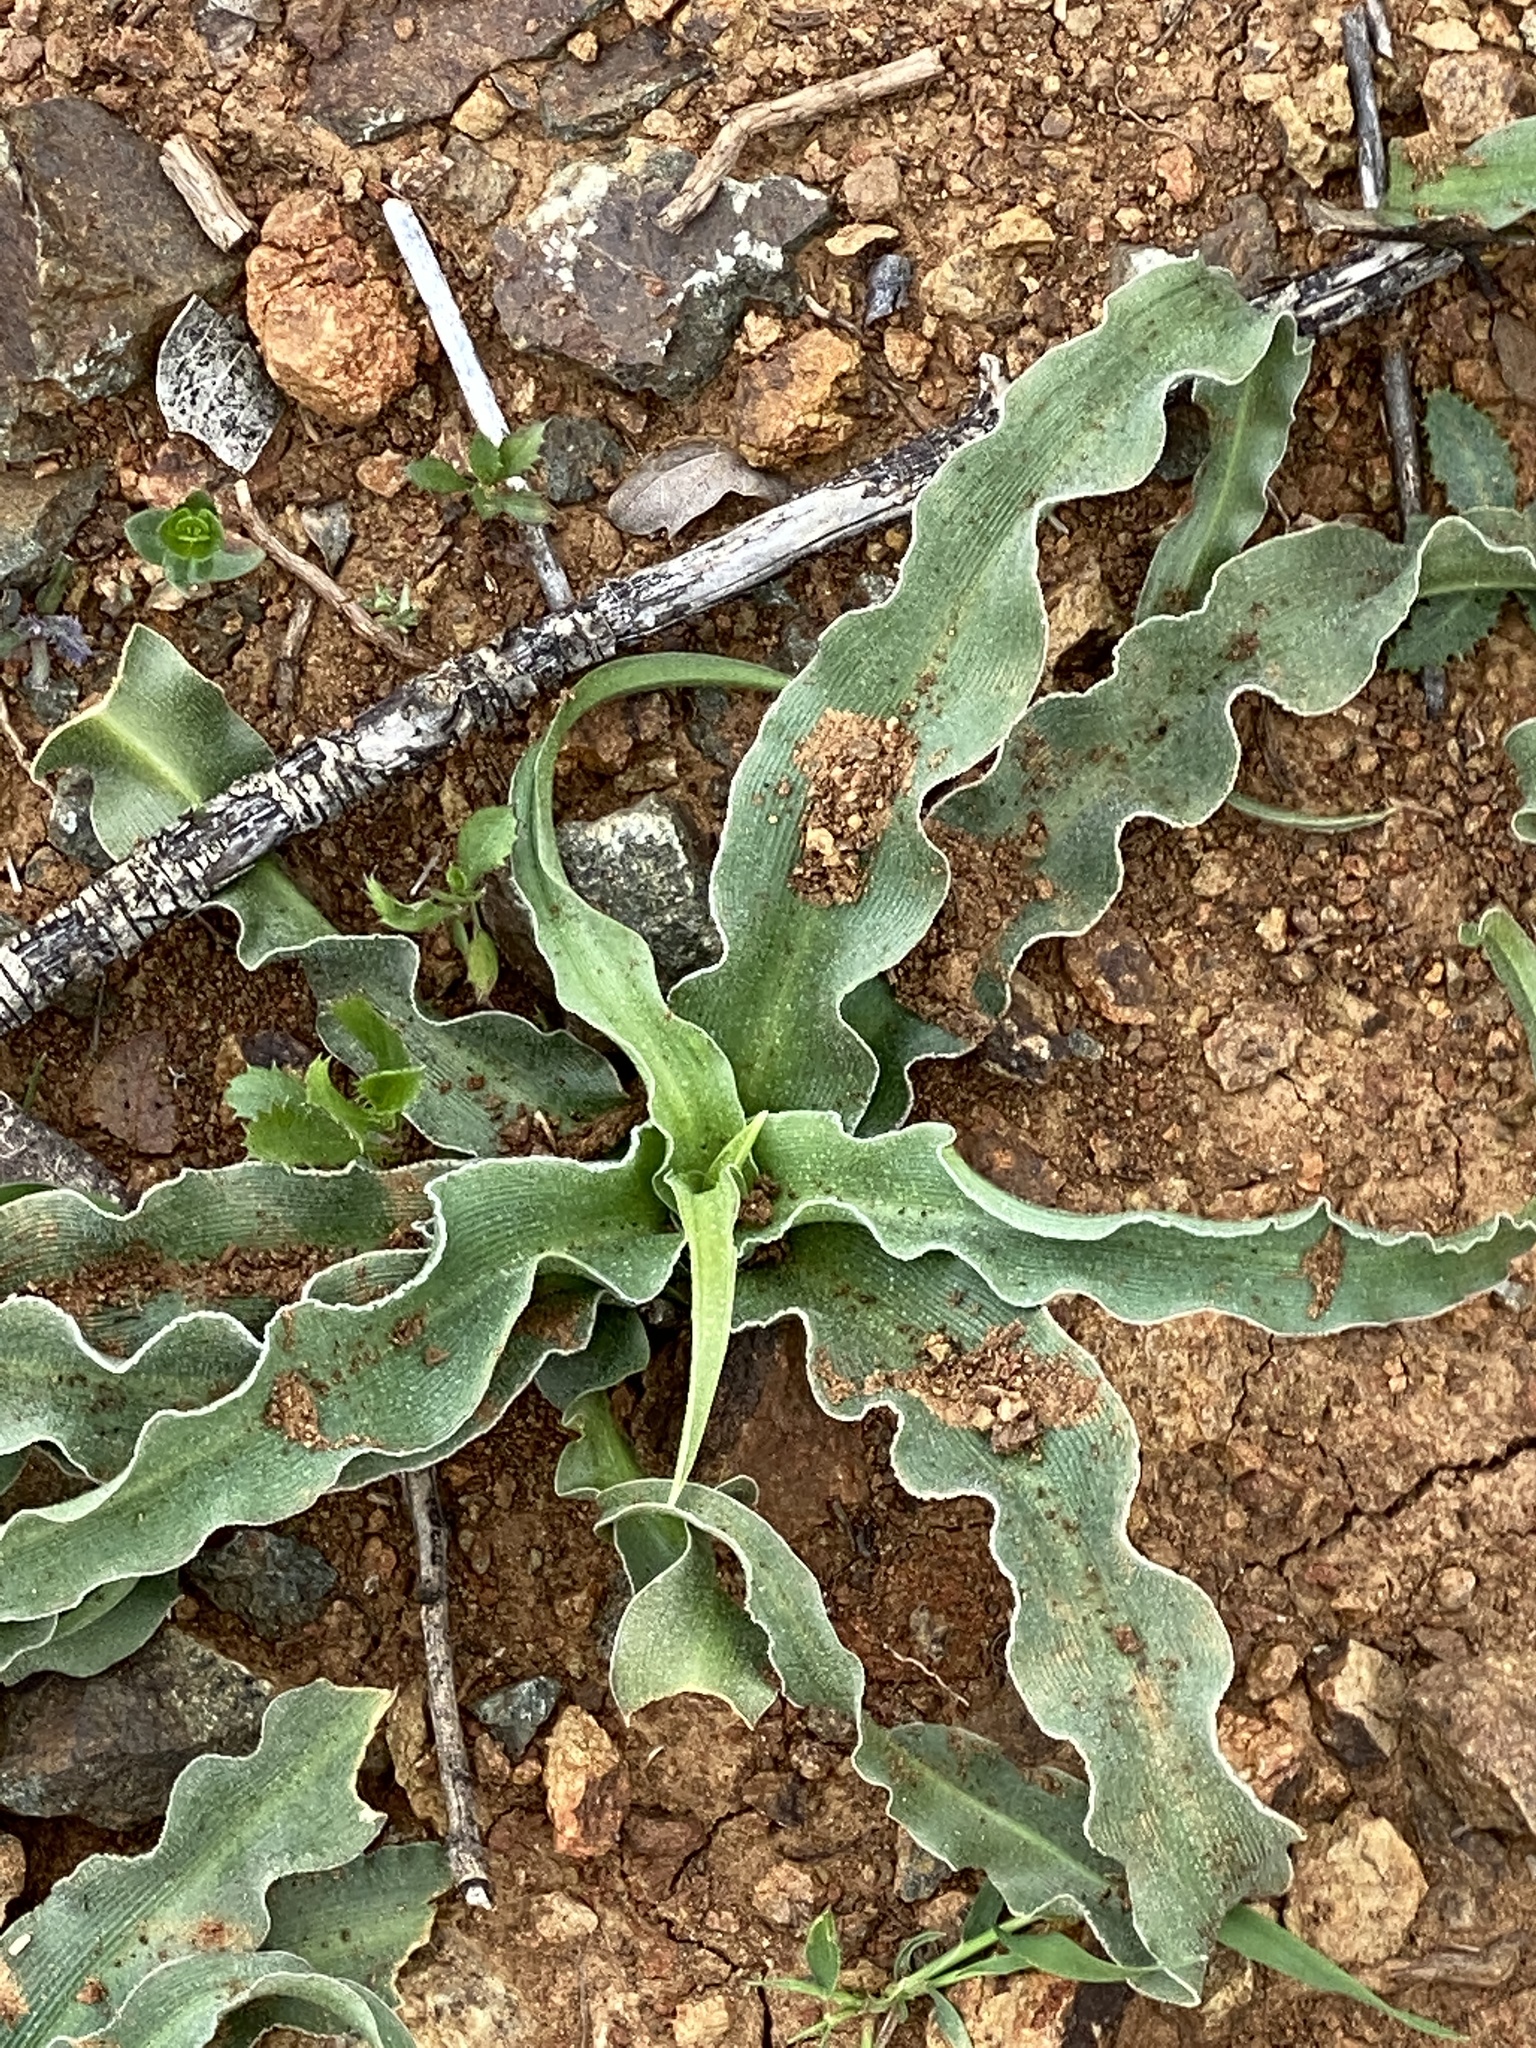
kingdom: Plantae
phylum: Tracheophyta
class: Liliopsida
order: Asparagales
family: Asparagaceae
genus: Chlorogalum
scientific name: Chlorogalum pomeridianum
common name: Amole
